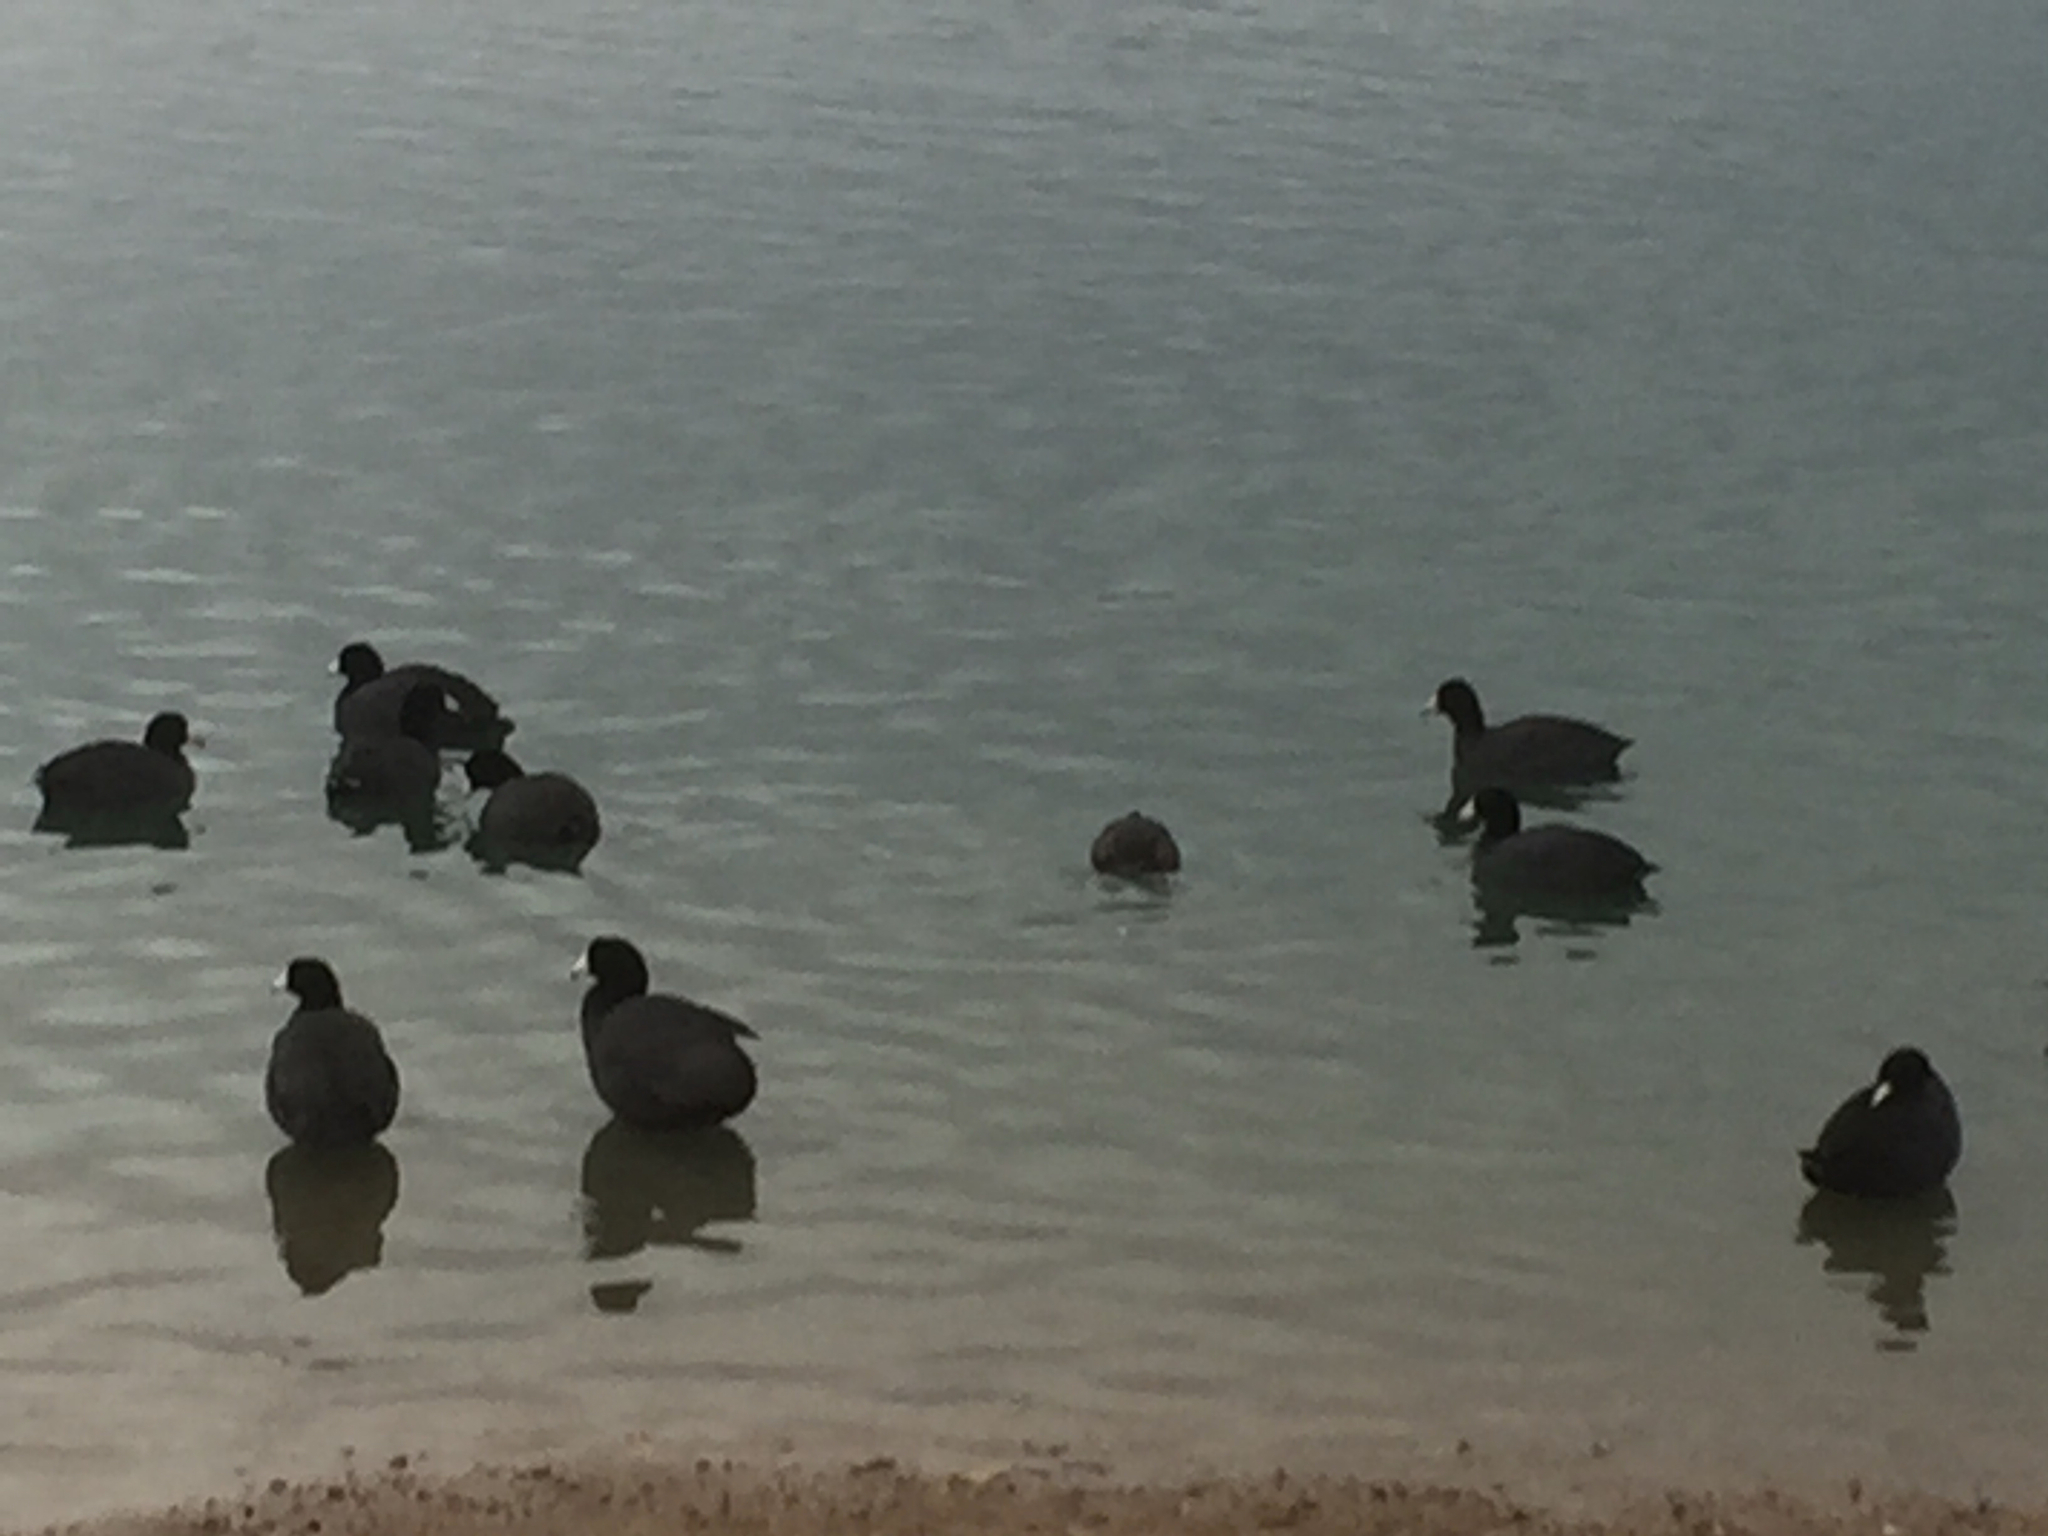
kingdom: Animalia
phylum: Chordata
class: Aves
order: Gruiformes
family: Rallidae
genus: Fulica
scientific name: Fulica americana
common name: American coot
